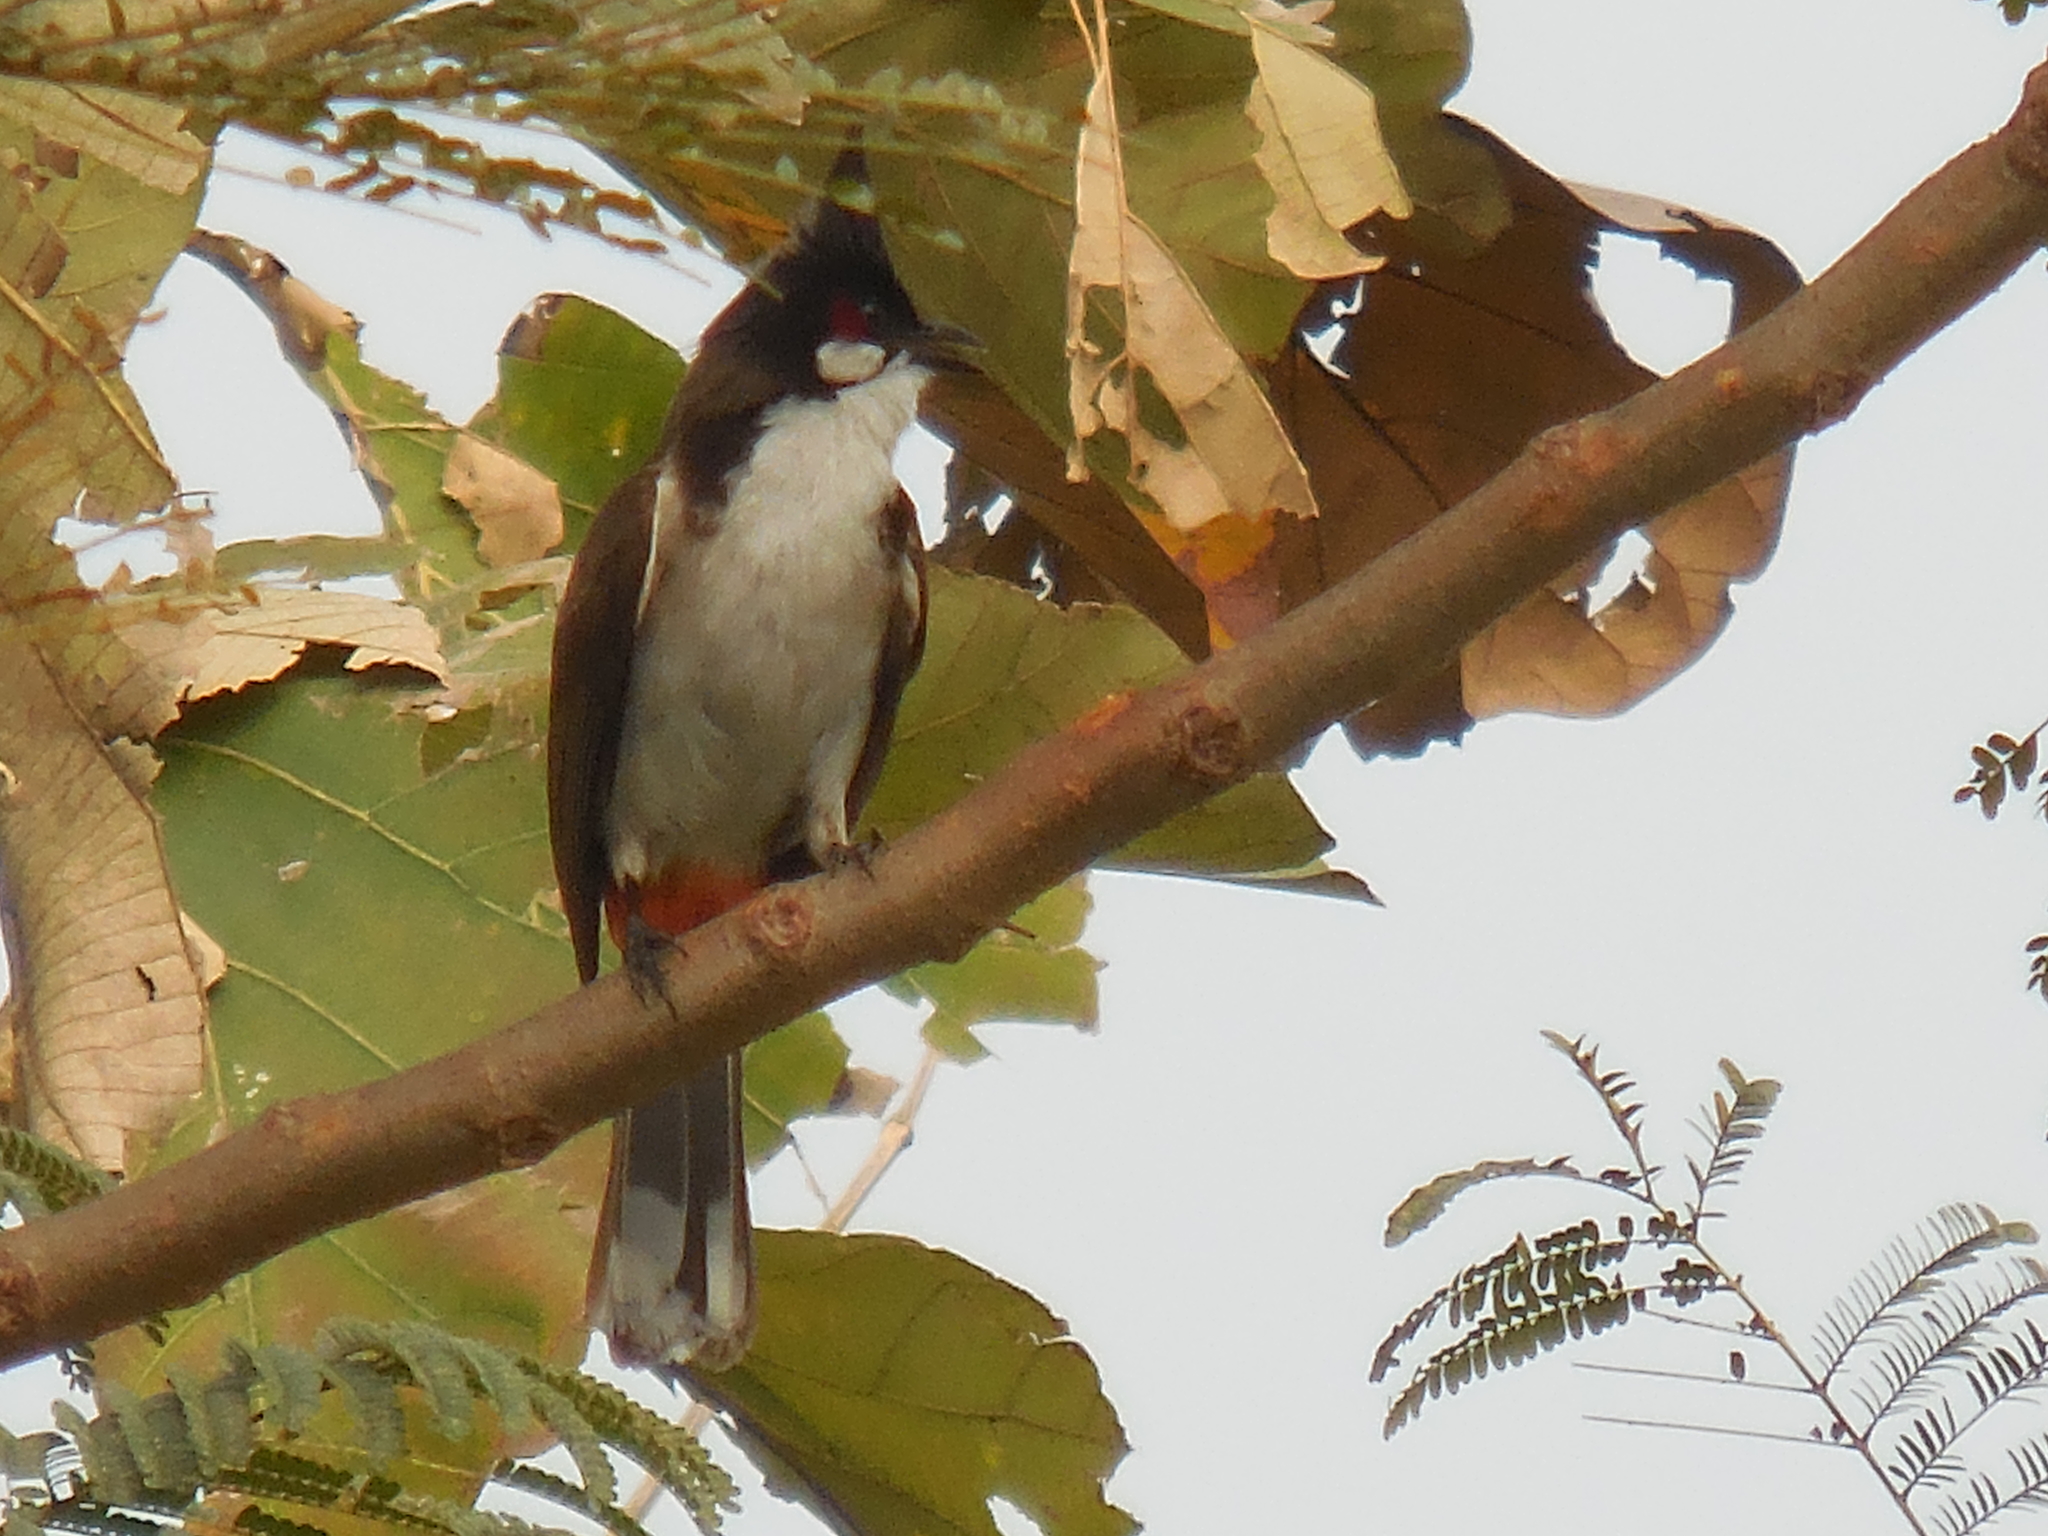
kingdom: Animalia
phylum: Chordata
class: Aves
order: Passeriformes
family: Pycnonotidae
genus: Pycnonotus
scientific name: Pycnonotus jocosus
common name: Red-whiskered bulbul
